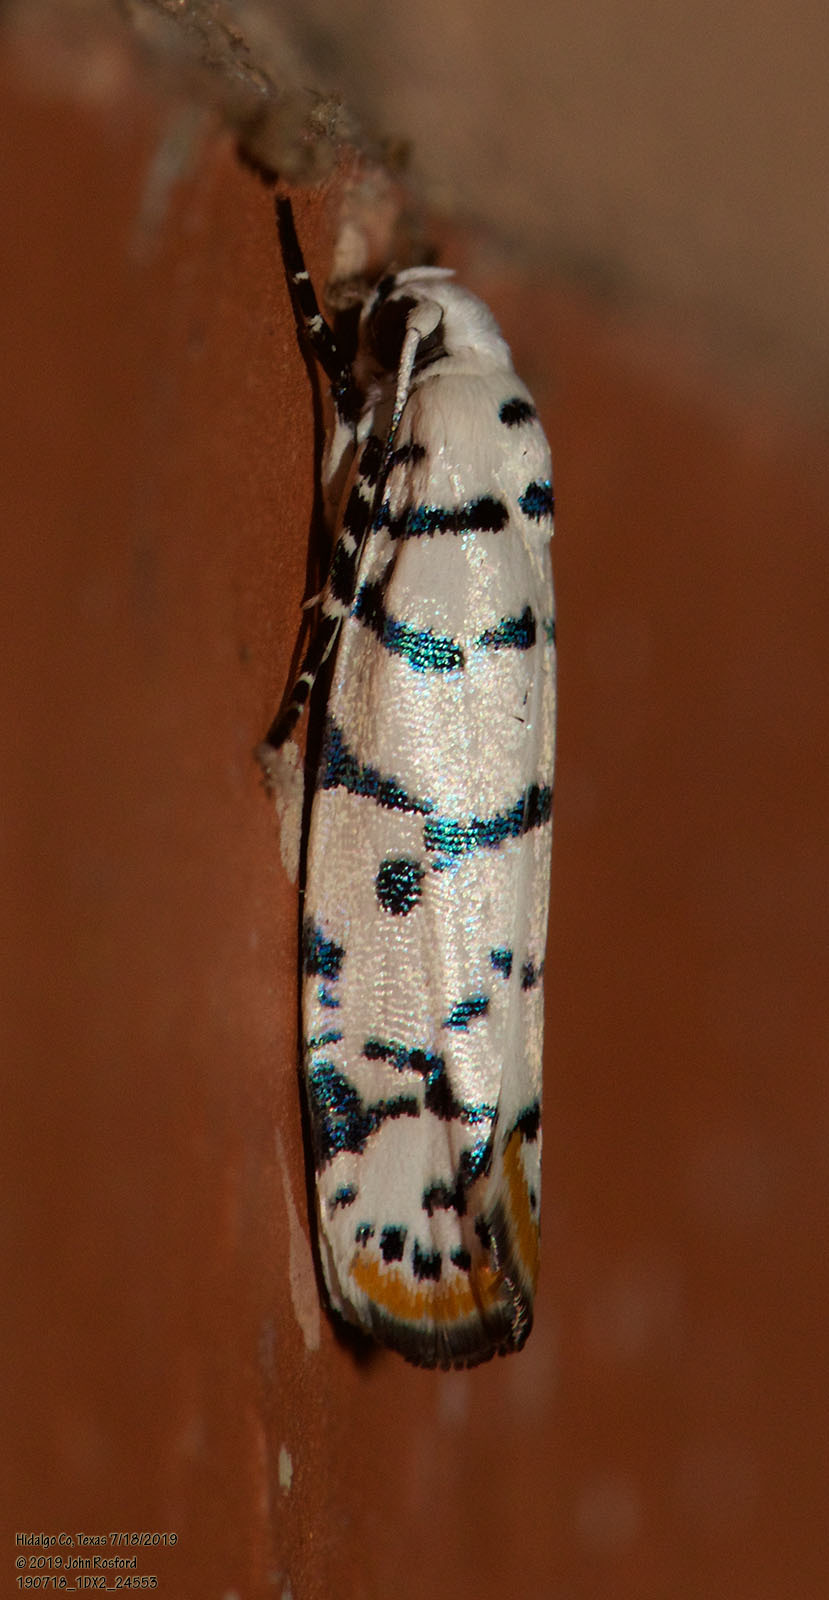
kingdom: Animalia
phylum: Arthropoda
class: Insecta
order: Lepidoptera
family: Ethmiidae
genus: Ethmia
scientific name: Ethmia delliella
